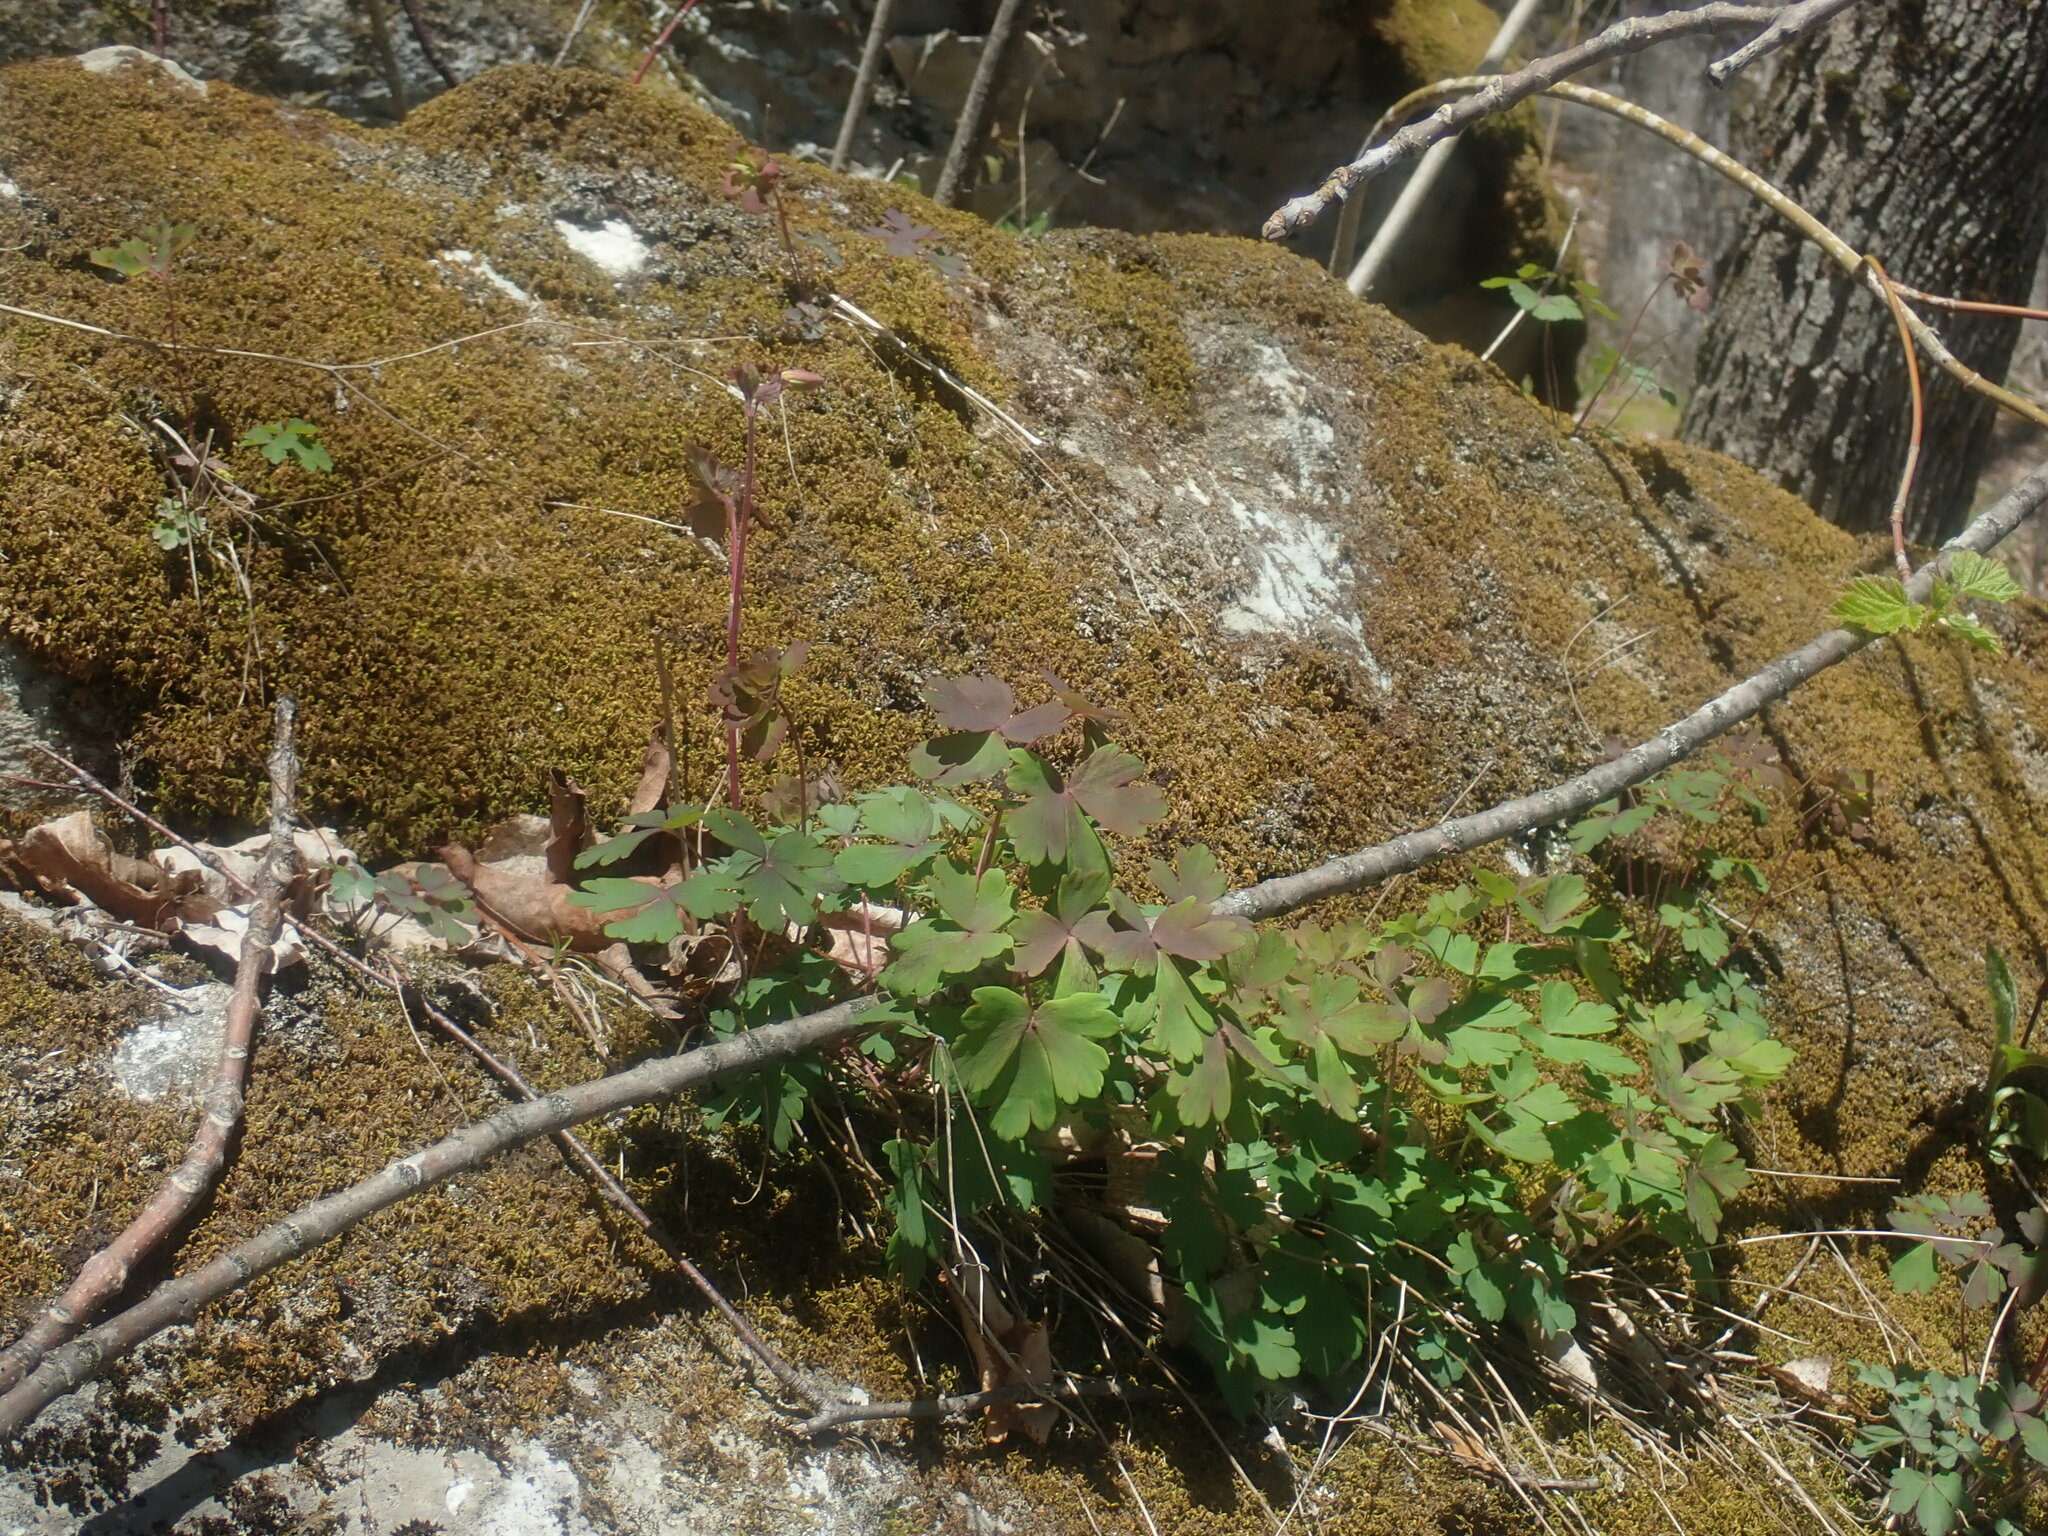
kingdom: Plantae
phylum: Tracheophyta
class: Magnoliopsida
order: Ranunculales
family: Ranunculaceae
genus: Aquilegia
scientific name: Aquilegia canadensis
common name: American columbine
